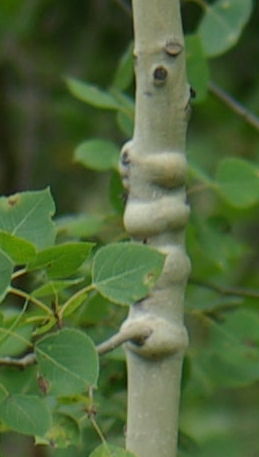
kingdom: Animalia
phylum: Arthropoda
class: Insecta
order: Diptera
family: Agromyzidae
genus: Euhexomyza
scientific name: Euhexomyza schineri
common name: Poplar twiggall fly
